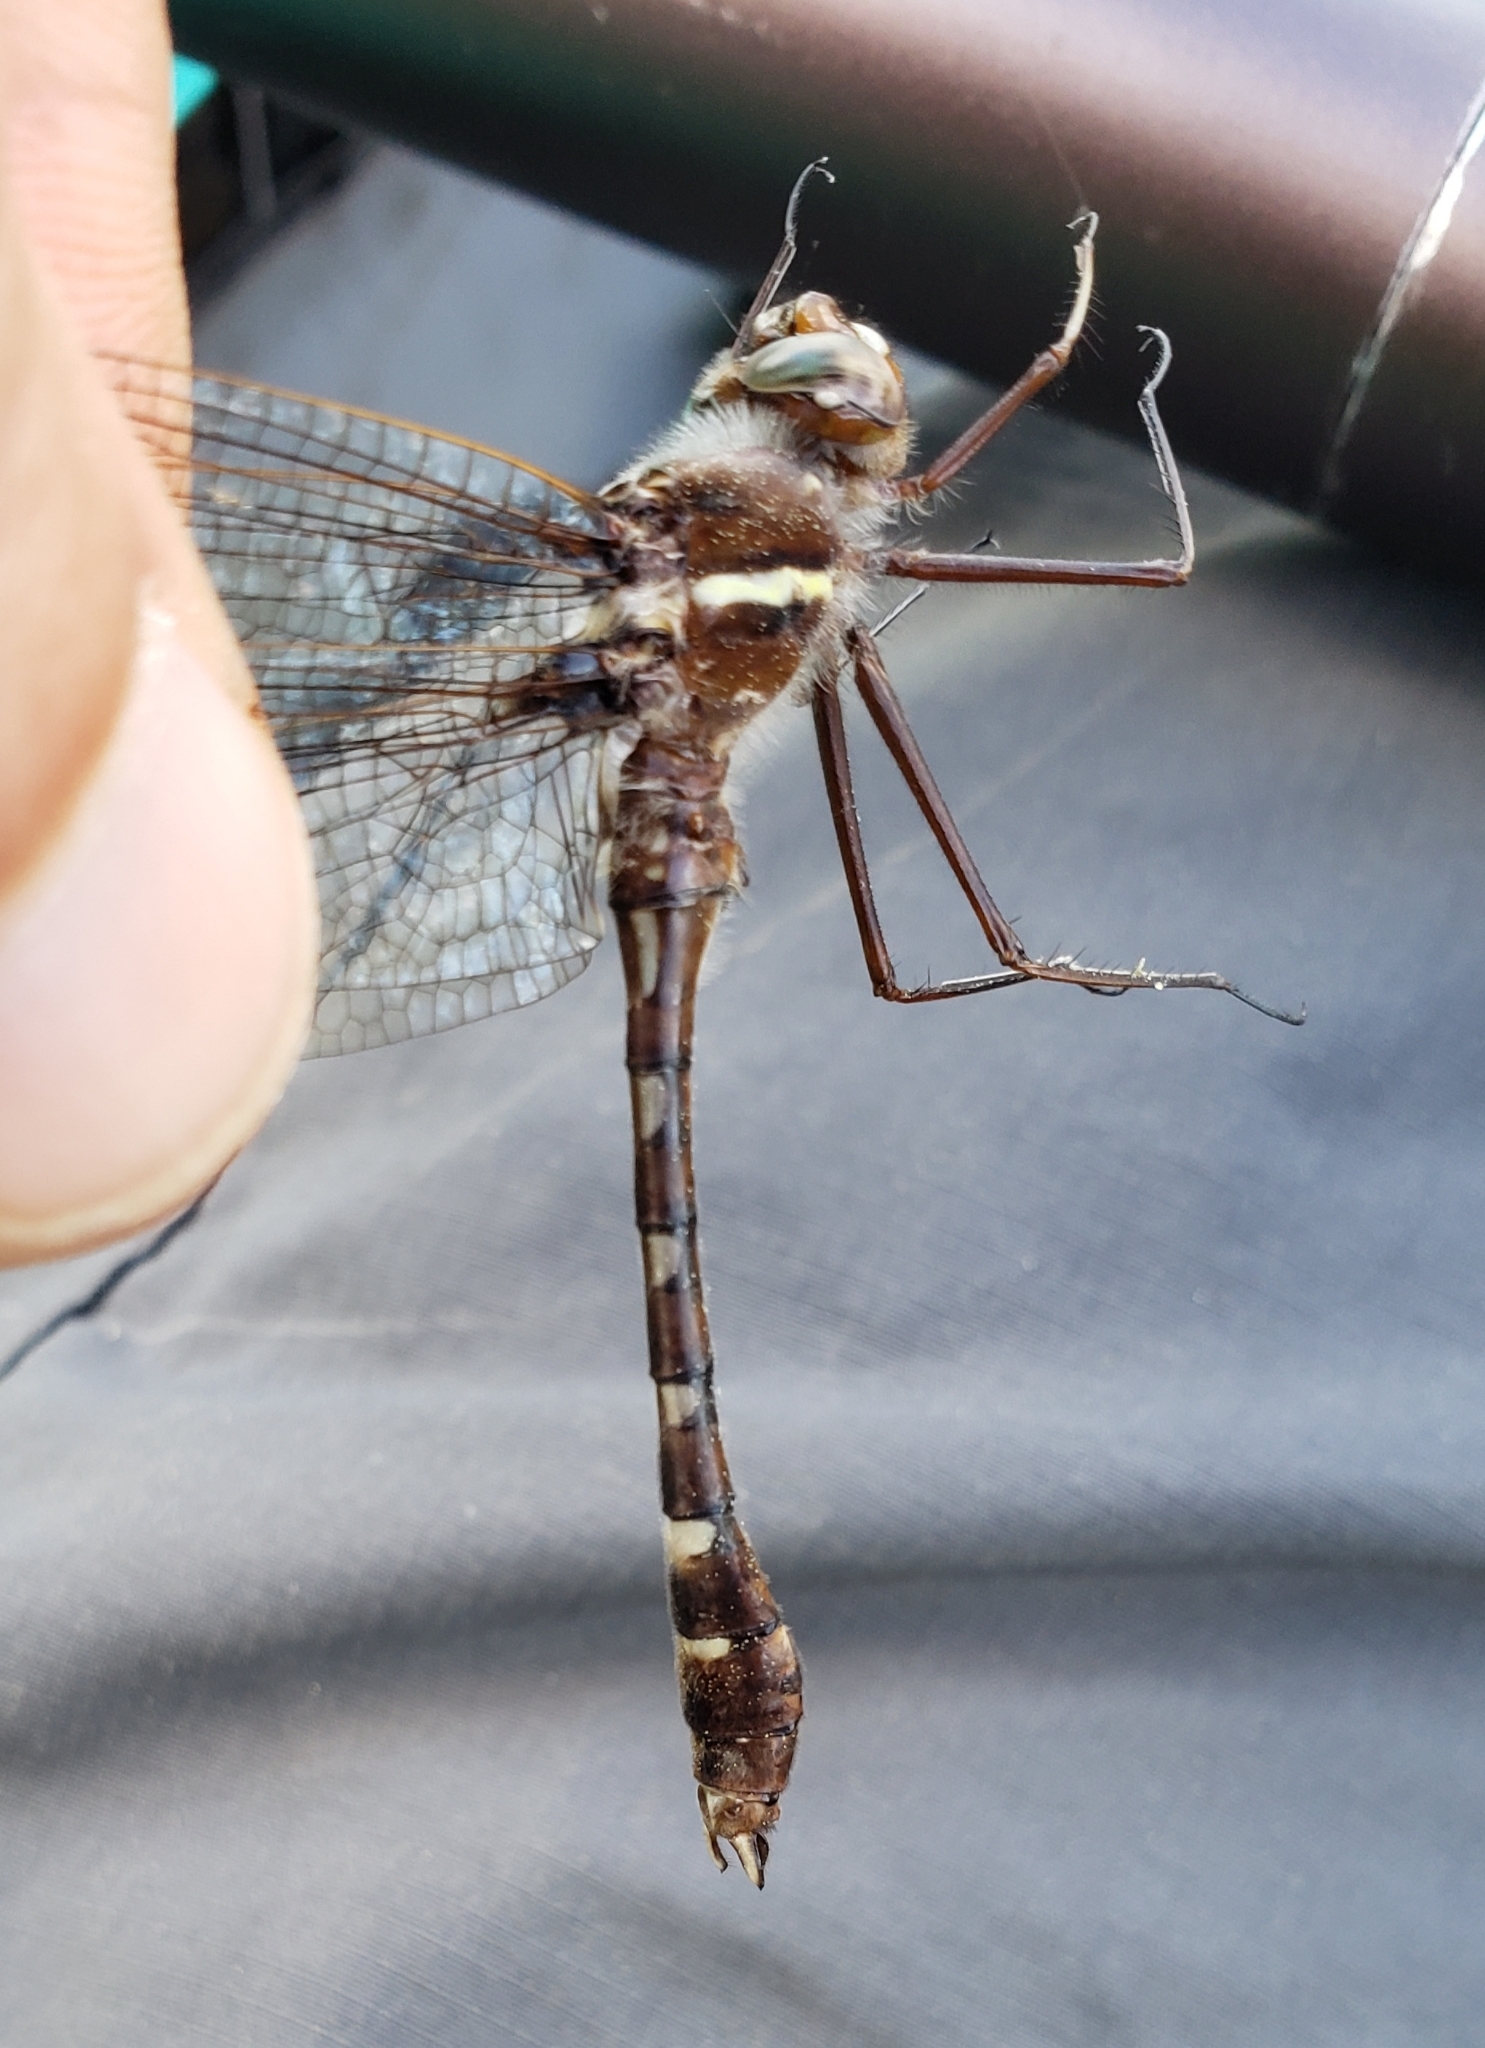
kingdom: Animalia
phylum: Arthropoda
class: Insecta
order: Odonata
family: Macromiidae
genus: Didymops
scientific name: Didymops transversa
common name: Stream cruiser
